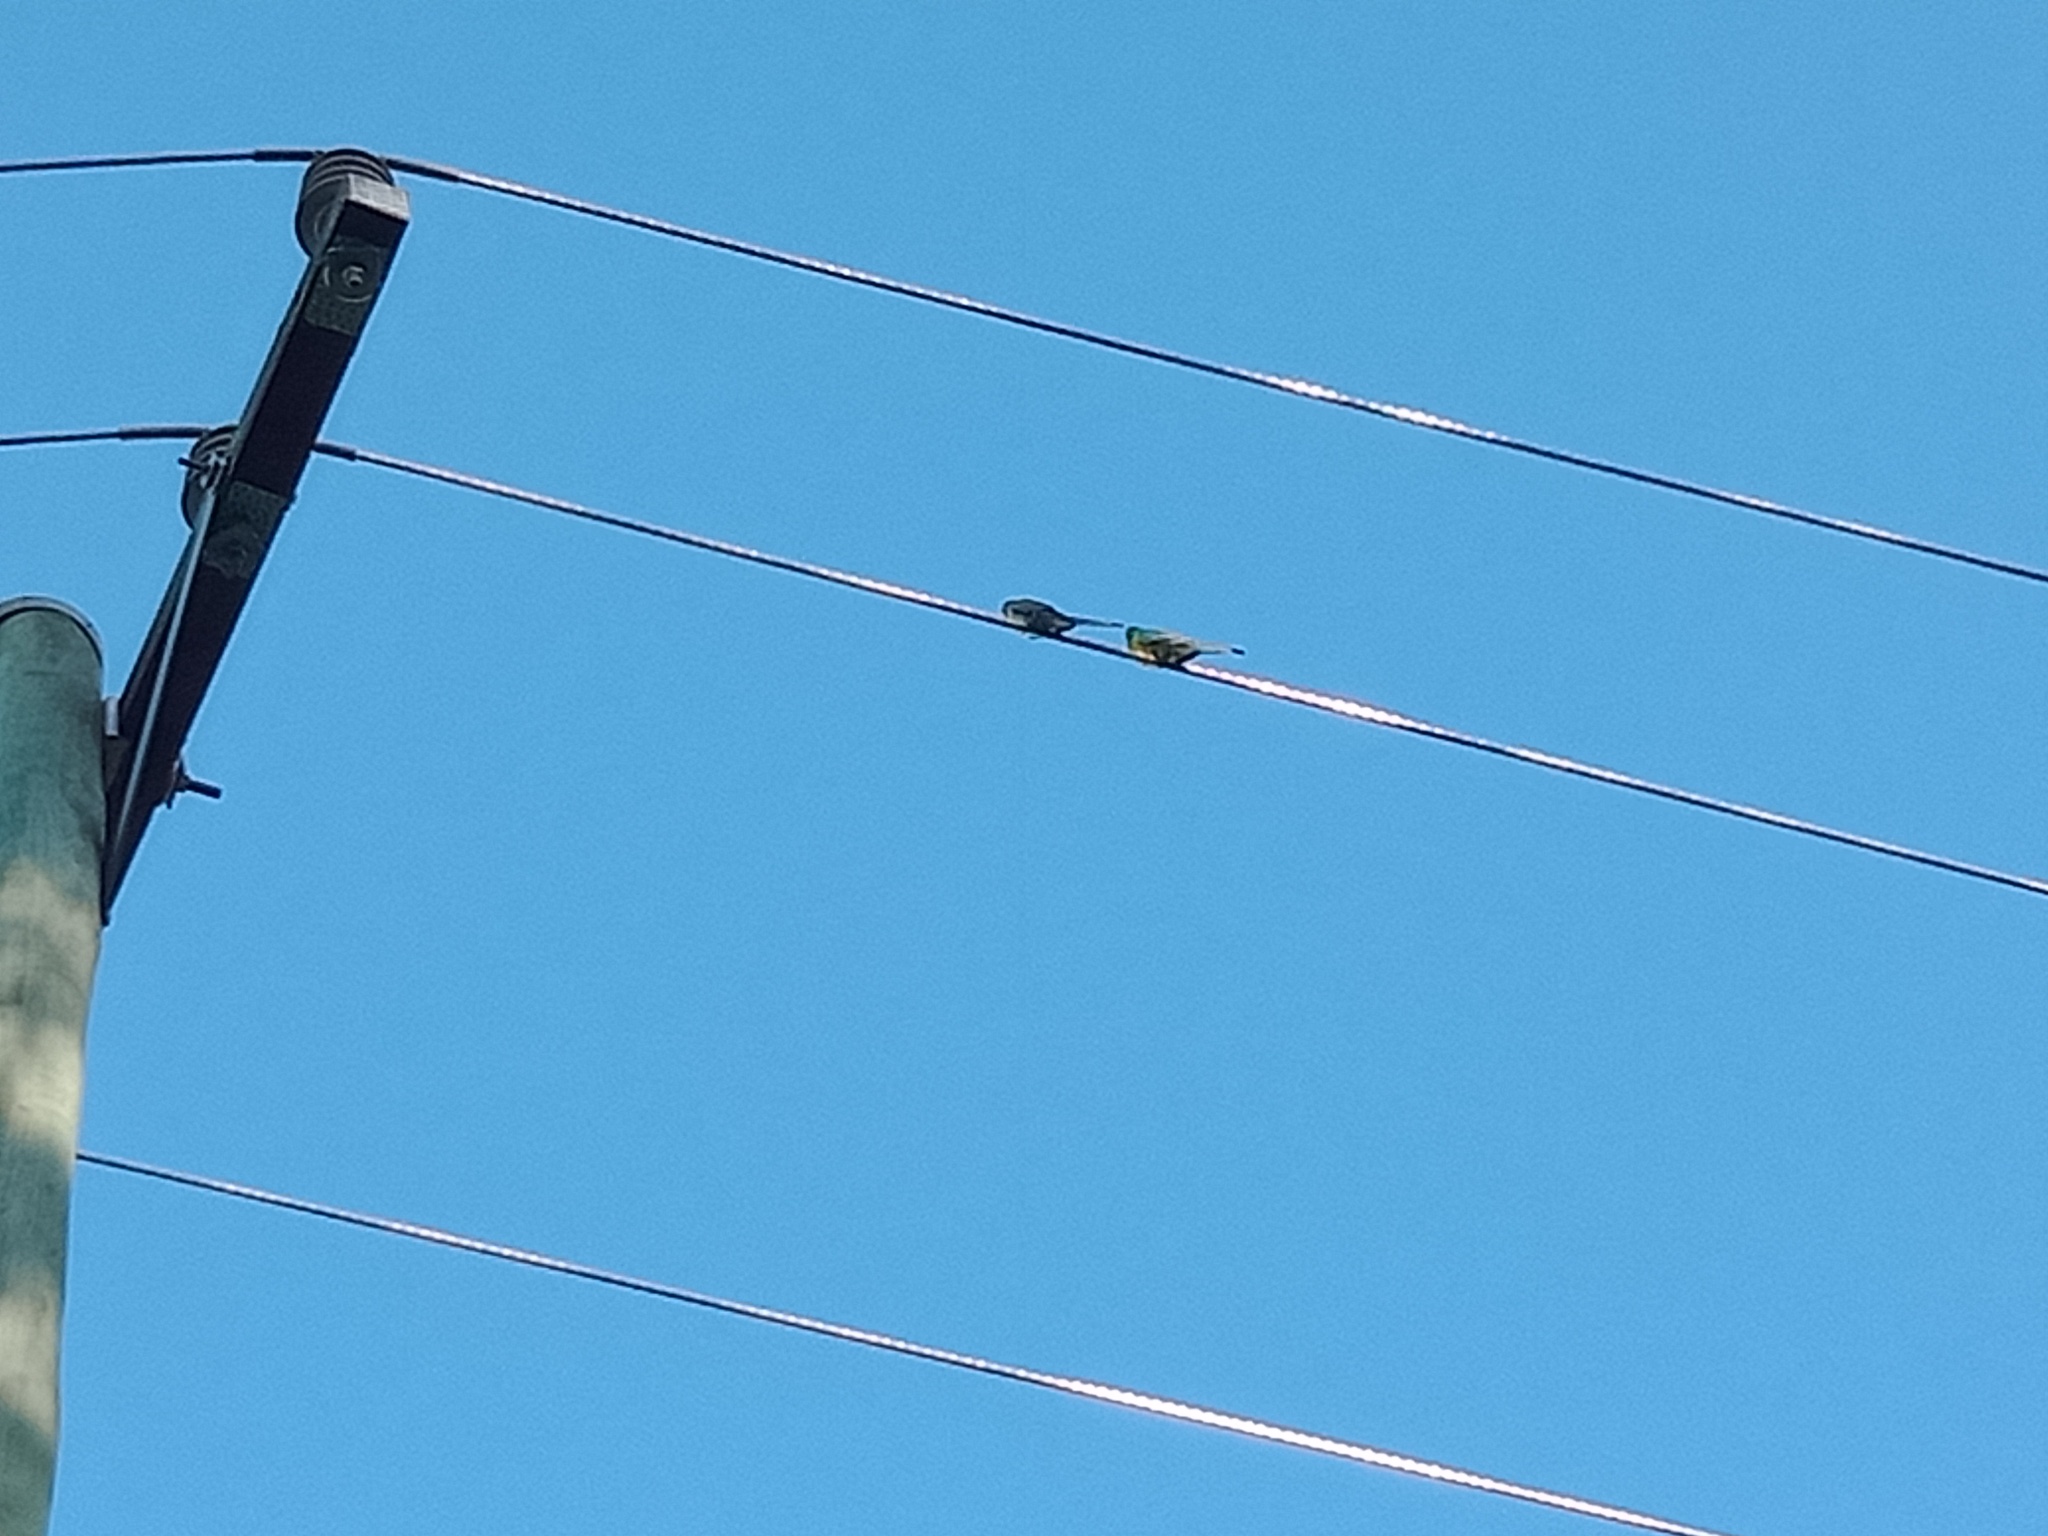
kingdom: Animalia
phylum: Chordata
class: Aves
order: Psittaciformes
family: Psittacidae
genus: Psephotus
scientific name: Psephotus haematonotus
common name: Red-rumped parrot
